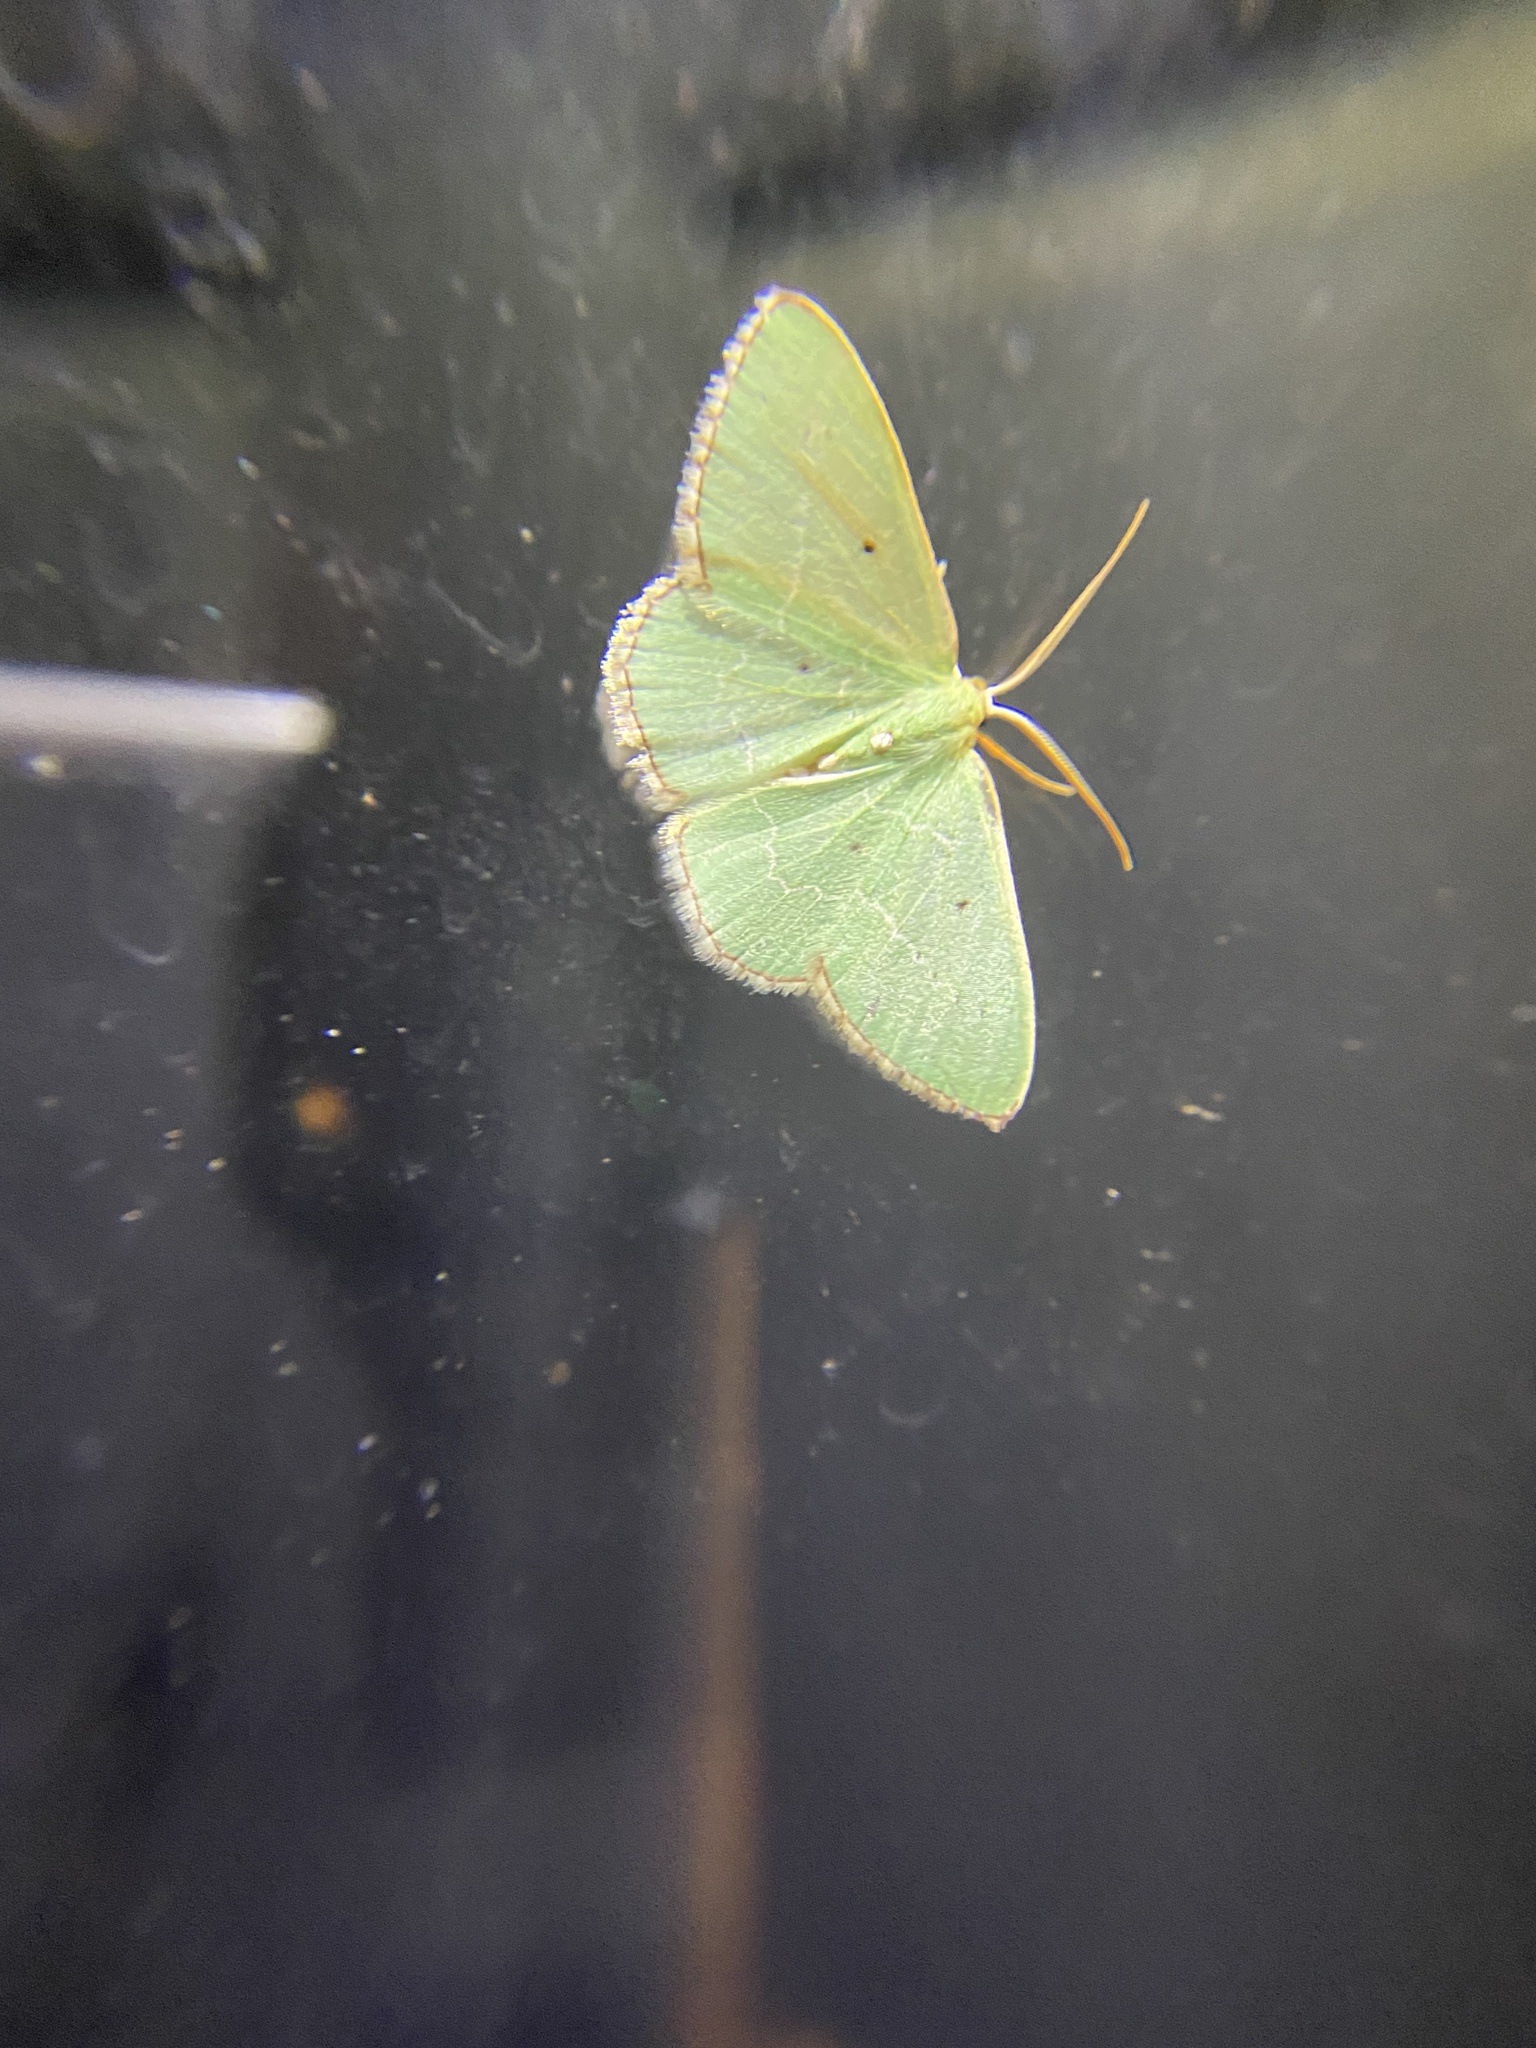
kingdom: Animalia
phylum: Arthropoda
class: Insecta
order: Lepidoptera
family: Geometridae
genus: Nemoria
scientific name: Nemoria lixaria
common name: Red-bordered emerald
